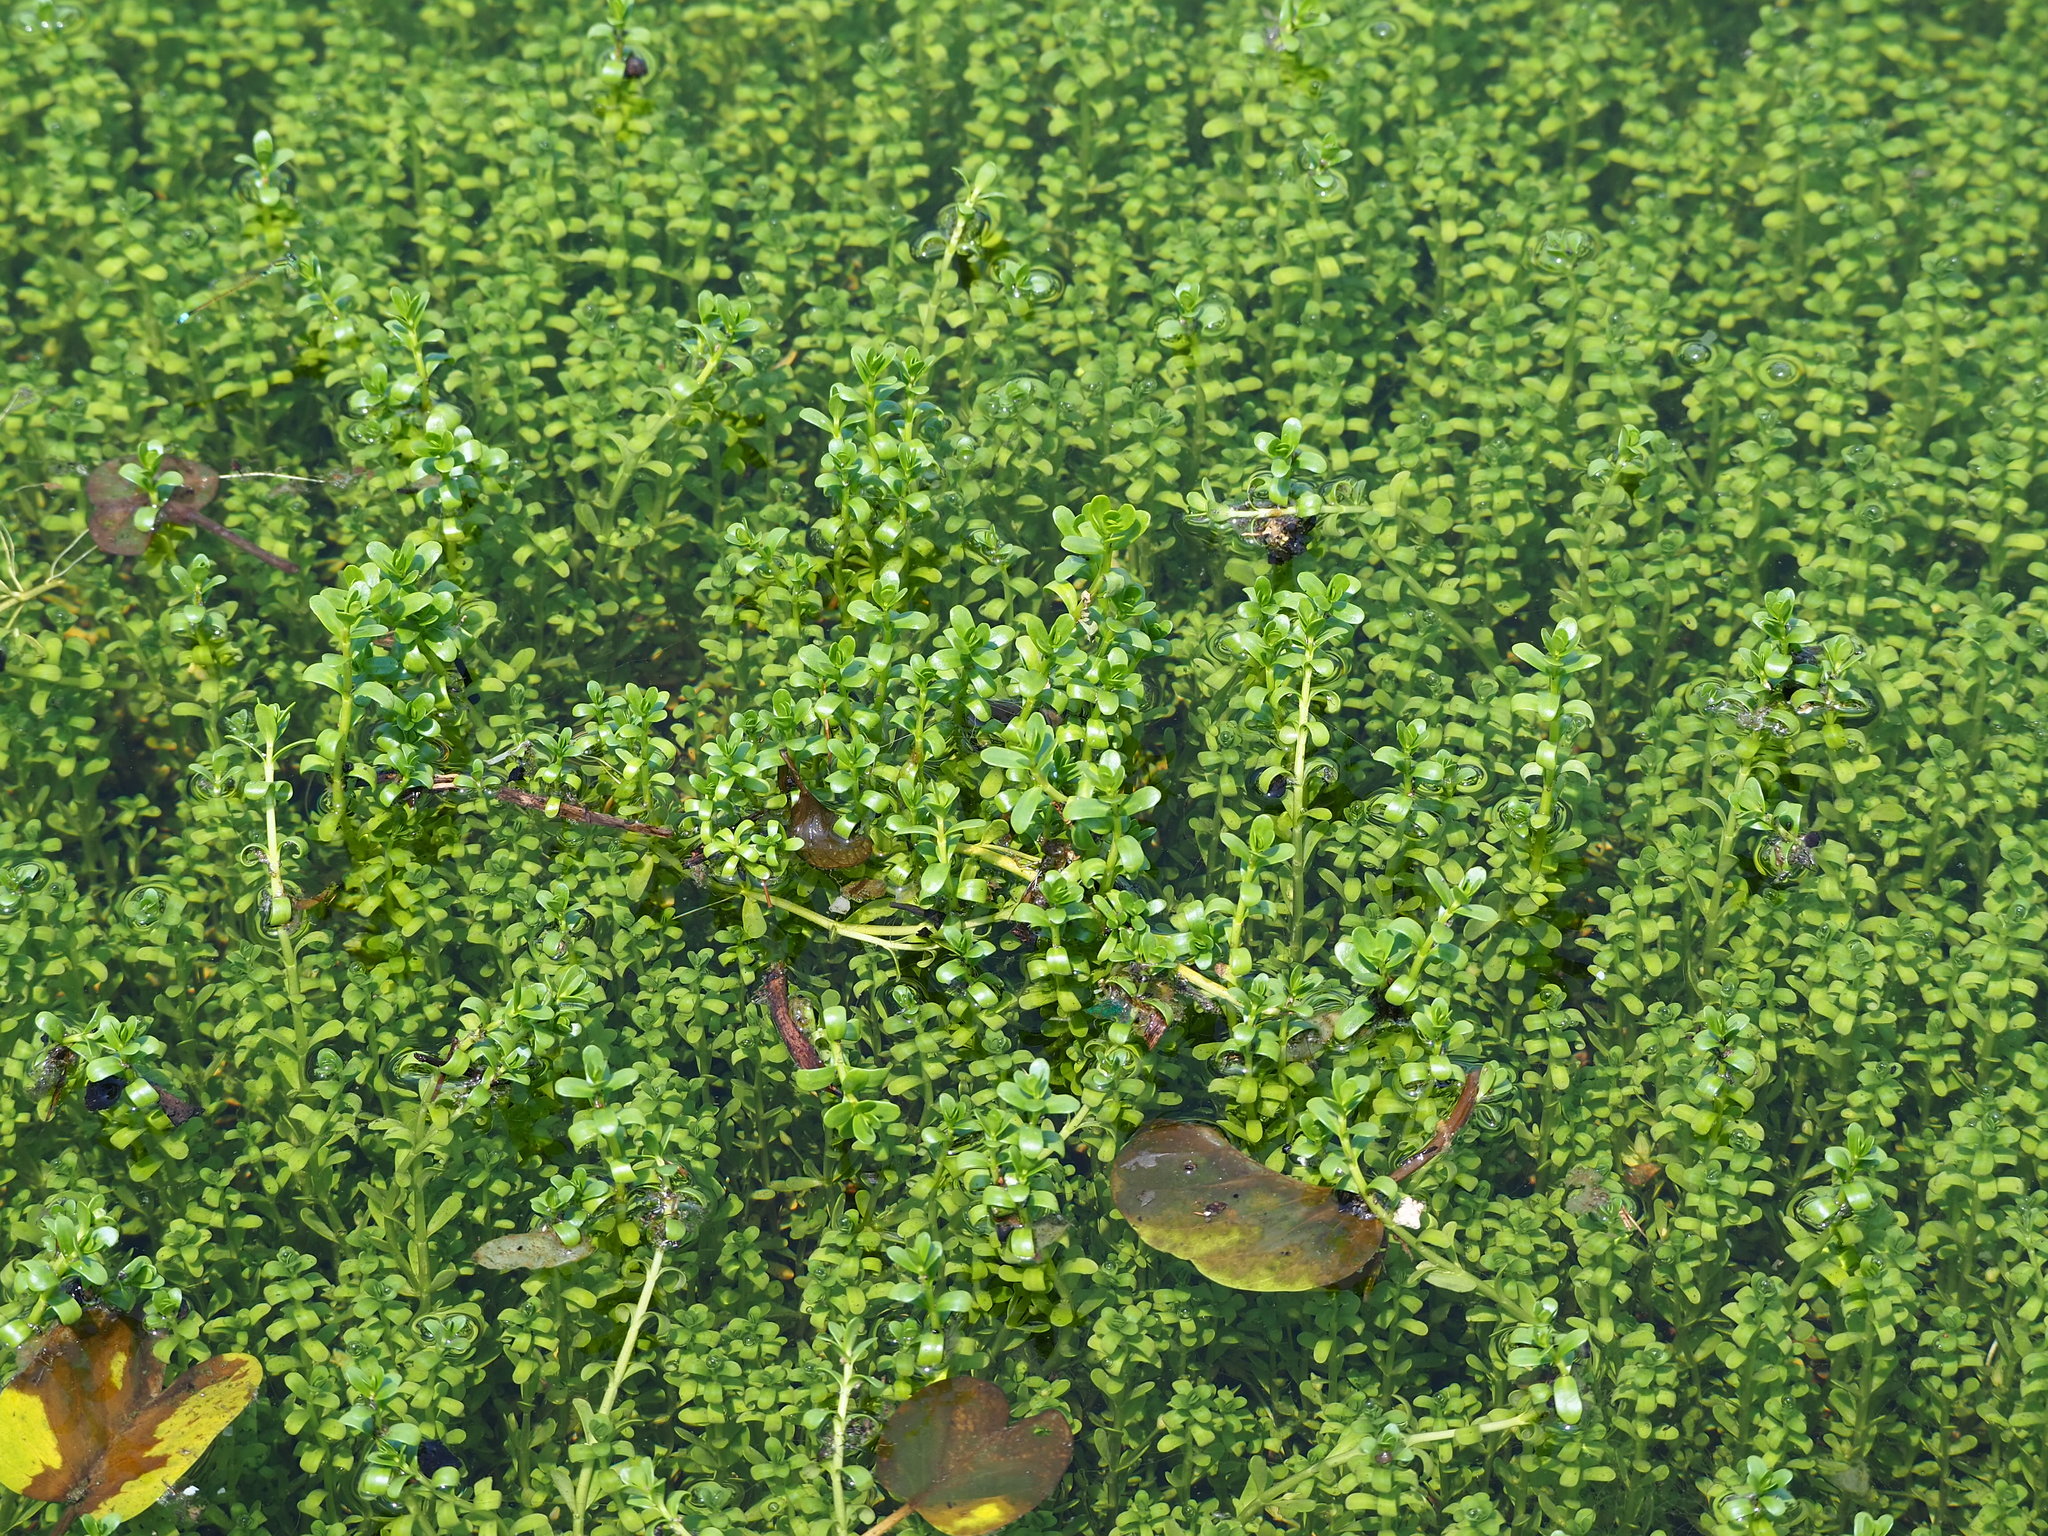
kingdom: Plantae
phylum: Tracheophyta
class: Magnoliopsida
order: Lamiales
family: Plantaginaceae
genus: Bacopa
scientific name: Bacopa monnieri
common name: Indian-pennywort
